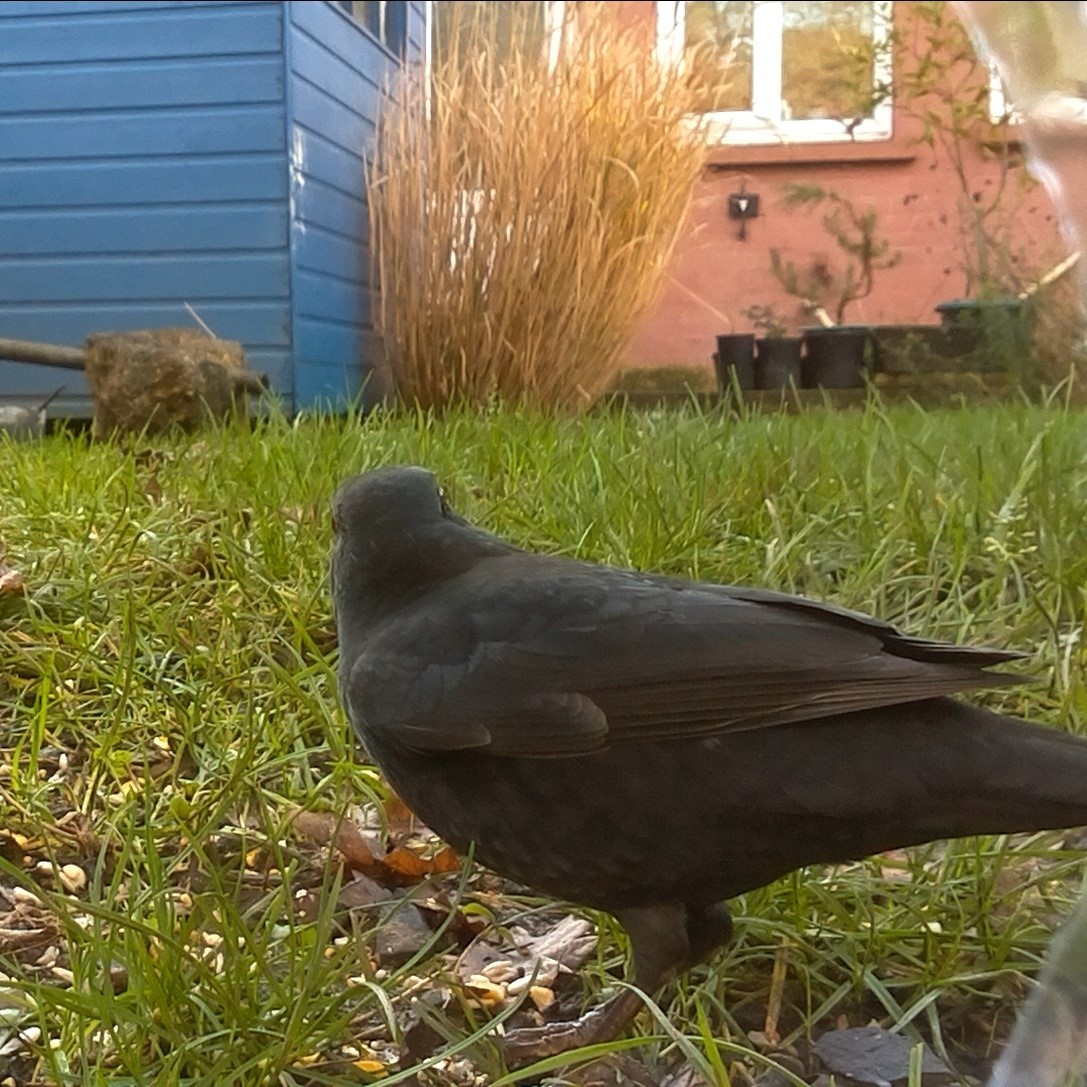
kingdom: Animalia
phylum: Chordata
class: Aves
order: Passeriformes
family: Turdidae
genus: Turdus
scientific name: Turdus merula
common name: Common blackbird
